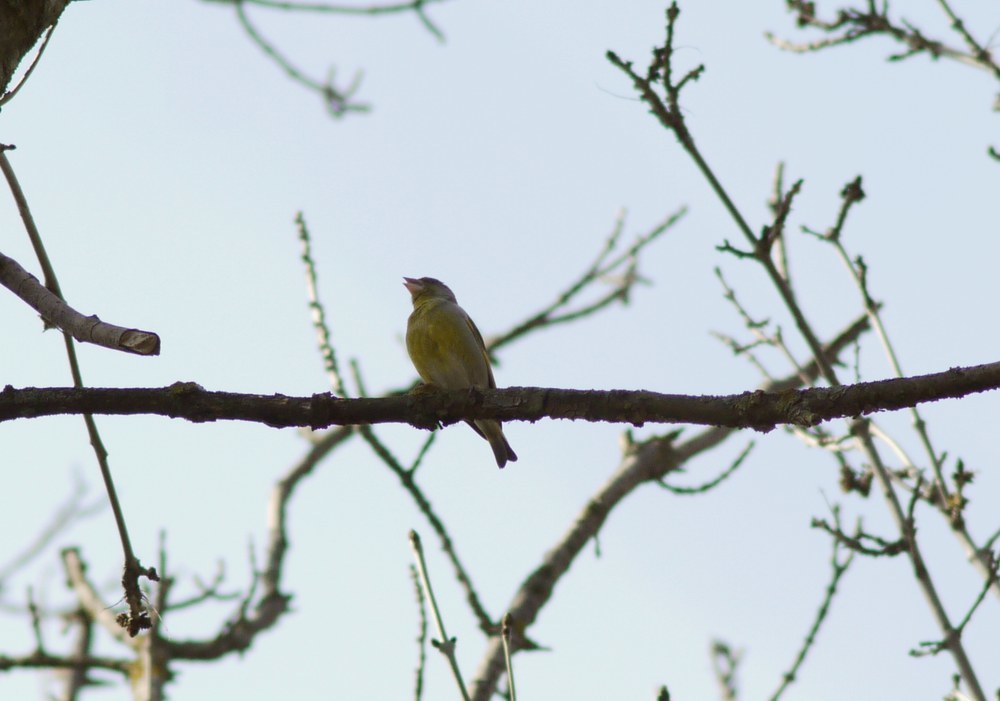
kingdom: Plantae
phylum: Tracheophyta
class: Liliopsida
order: Poales
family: Poaceae
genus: Chloris
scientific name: Chloris chloris
